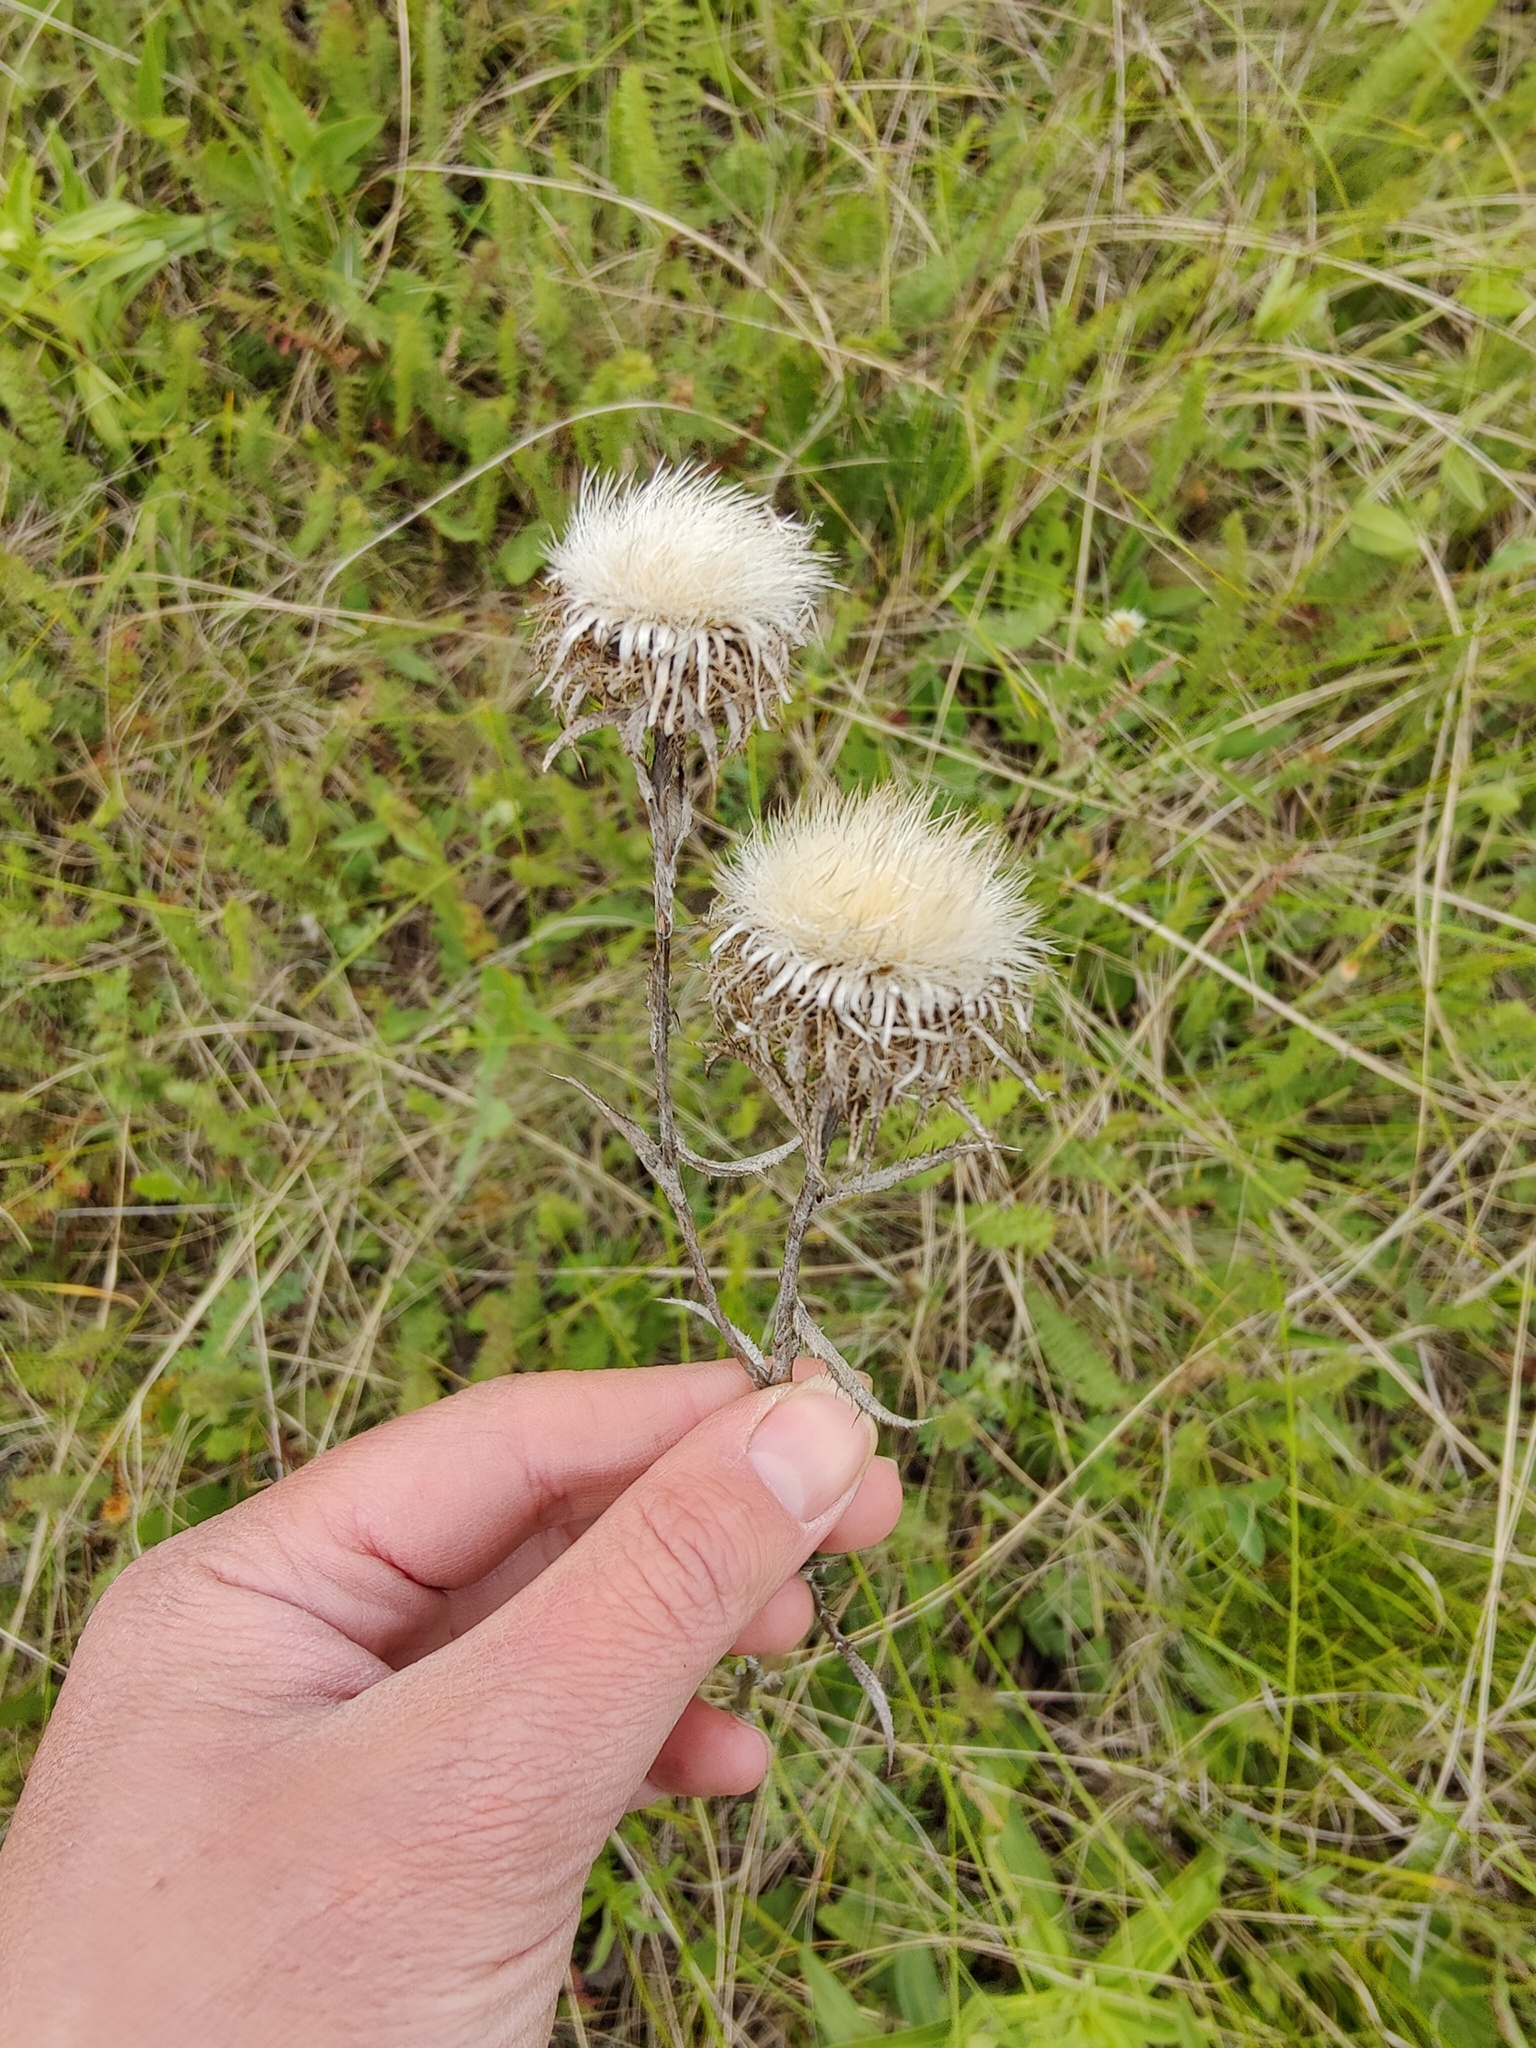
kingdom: Plantae
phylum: Tracheophyta
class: Magnoliopsida
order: Asterales
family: Asteraceae
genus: Carlina
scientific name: Carlina biebersteinii
